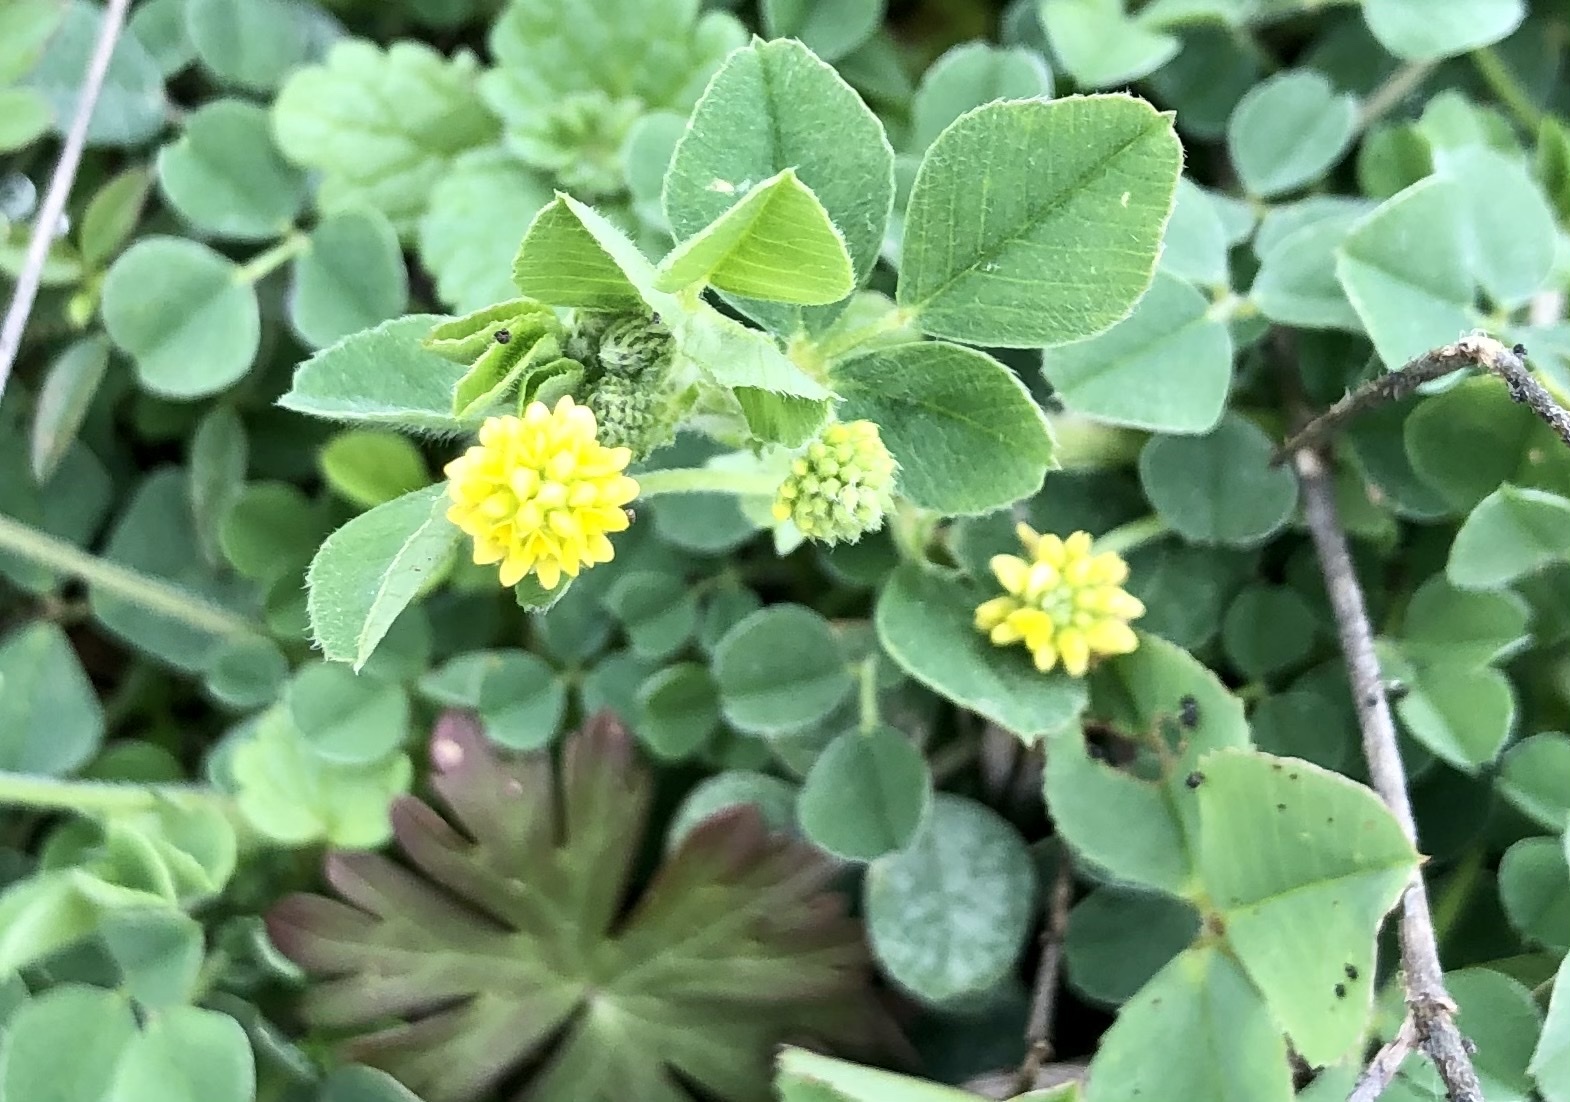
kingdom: Plantae
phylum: Tracheophyta
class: Magnoliopsida
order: Fabales
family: Fabaceae
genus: Medicago
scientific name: Medicago lupulina
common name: Black medick
